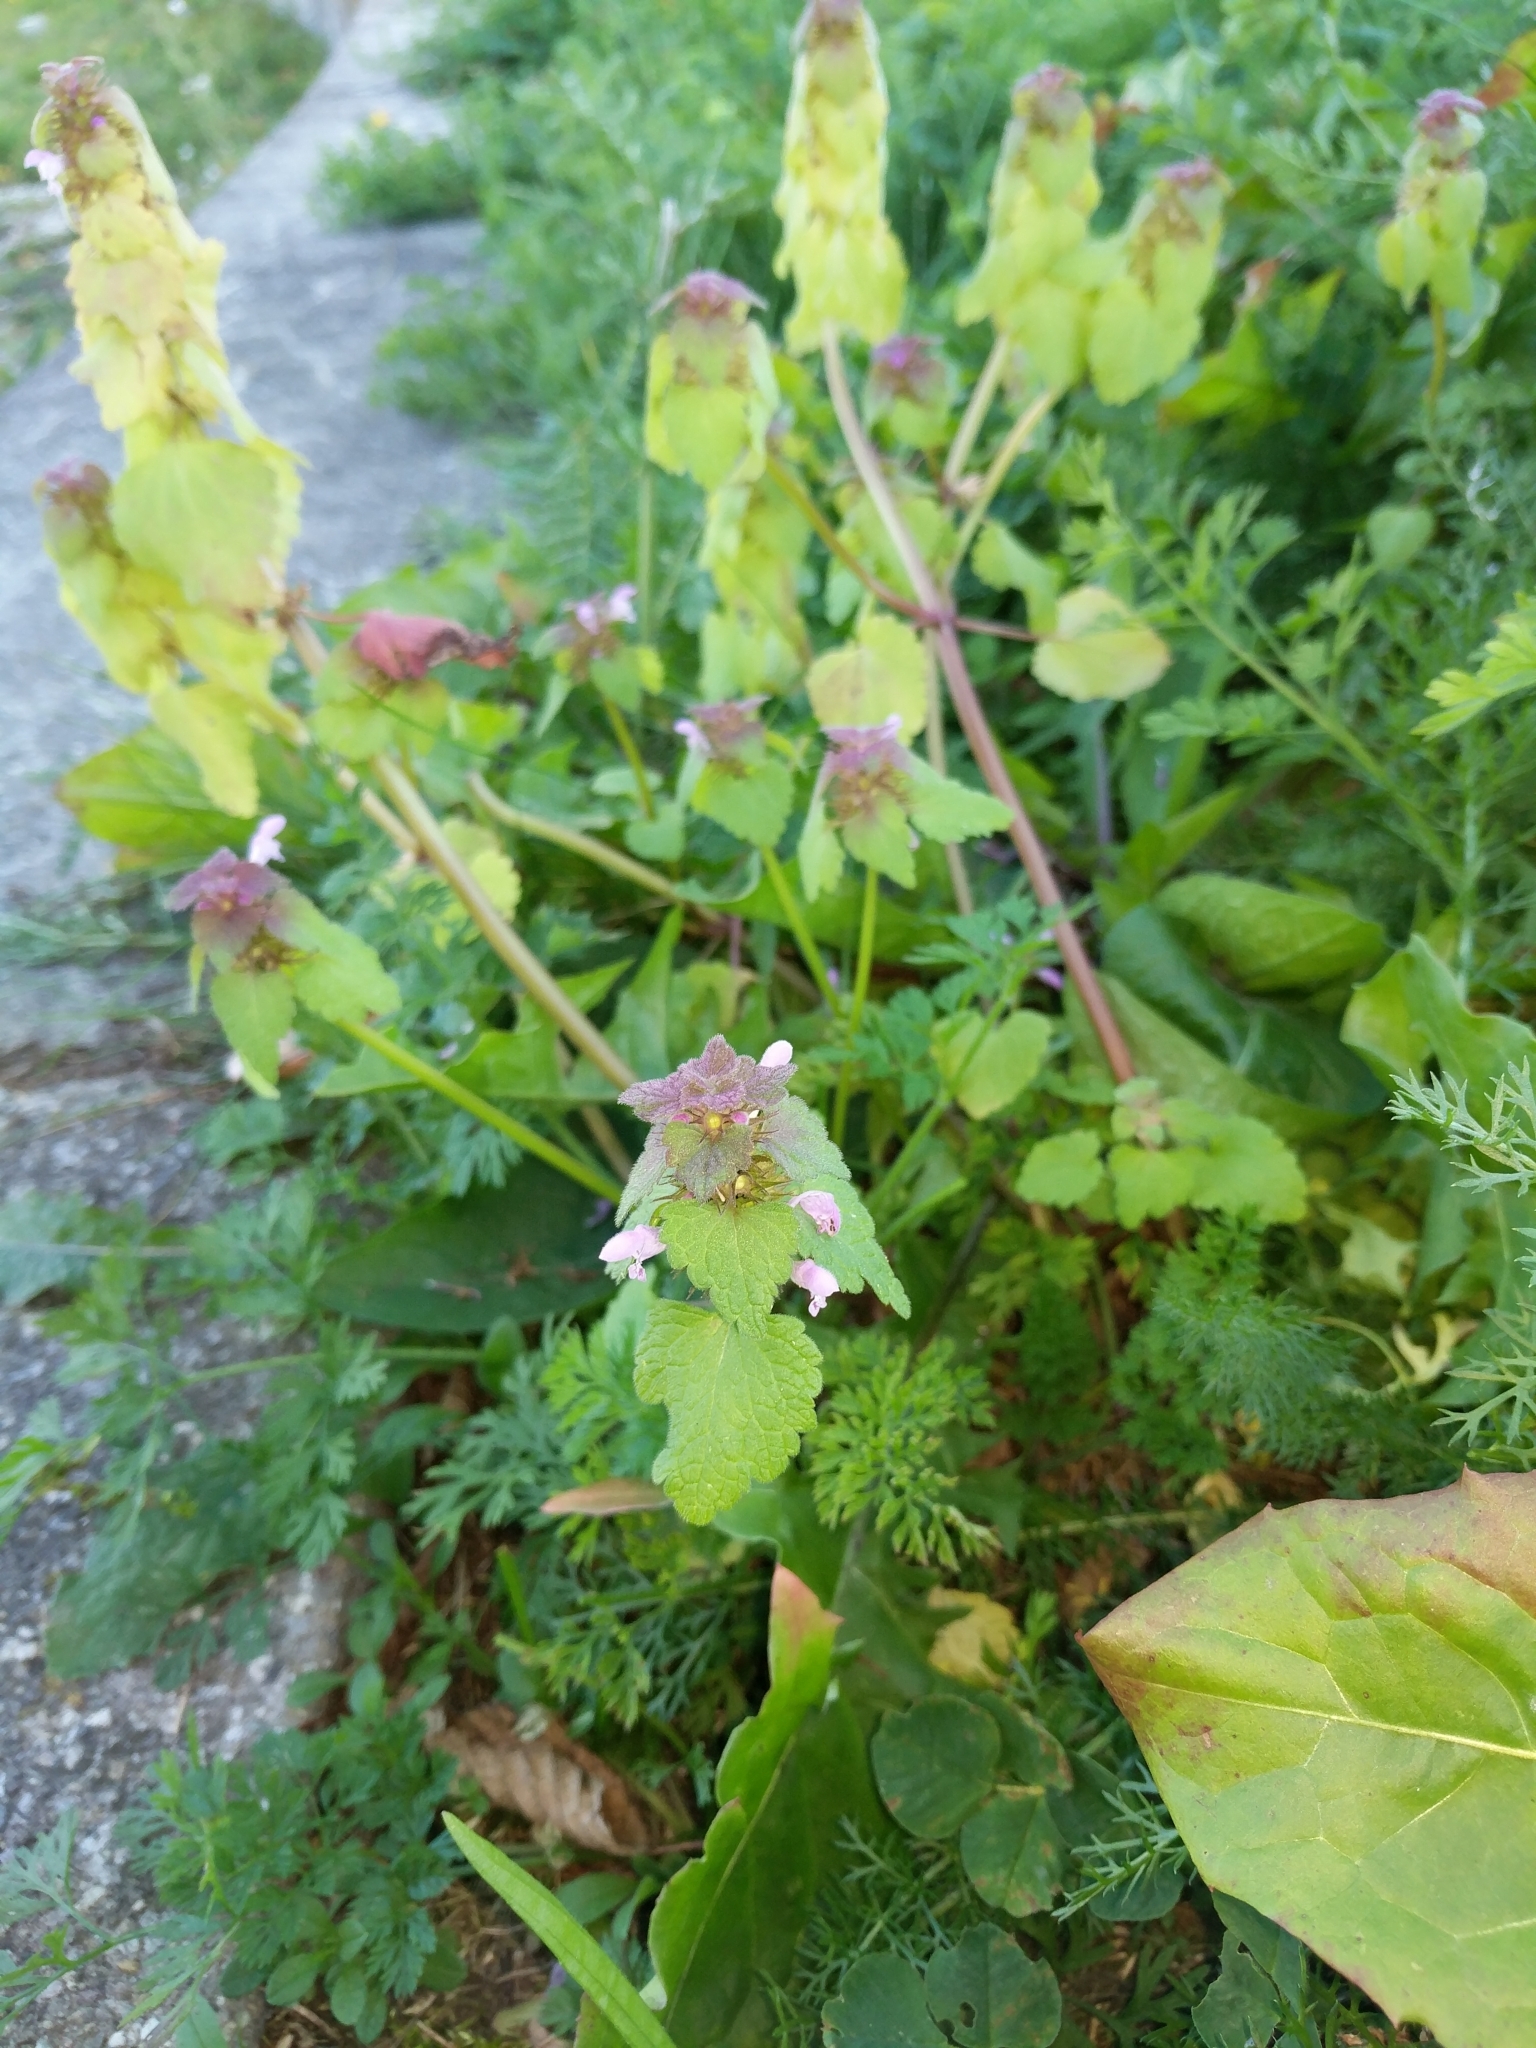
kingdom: Plantae
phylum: Tracheophyta
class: Magnoliopsida
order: Lamiales
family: Lamiaceae
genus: Lamium
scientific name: Lamium purpureum
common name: Red dead-nettle
